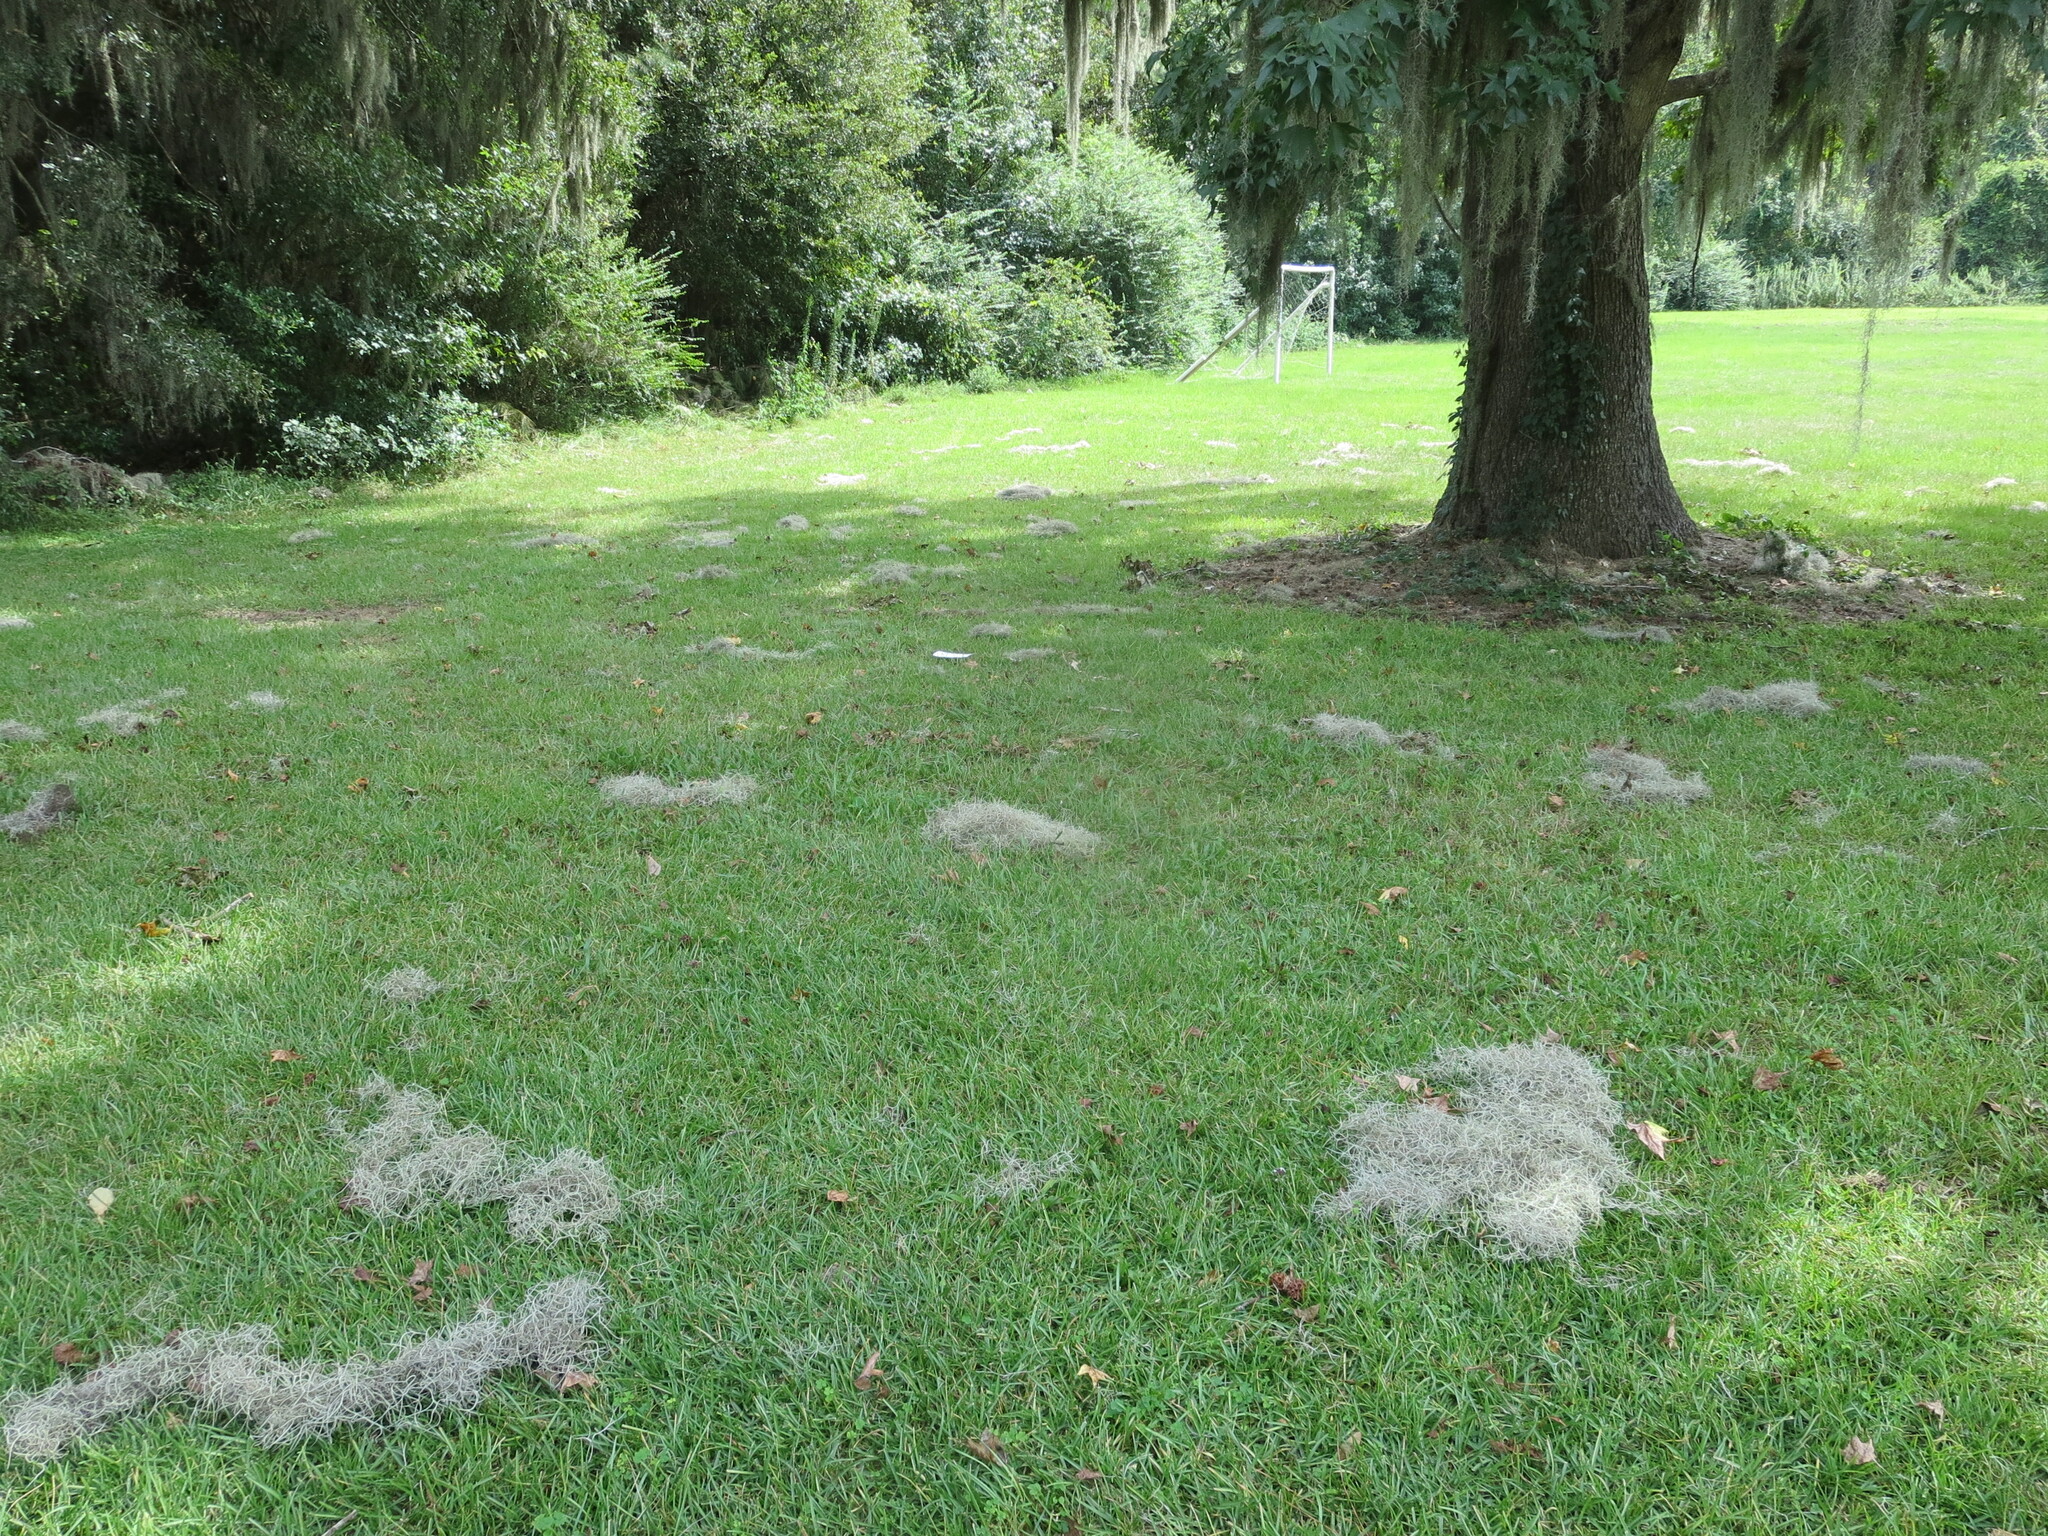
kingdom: Plantae
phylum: Tracheophyta
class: Liliopsida
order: Poales
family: Bromeliaceae
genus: Tillandsia
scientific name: Tillandsia usneoides
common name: Spanish moss
